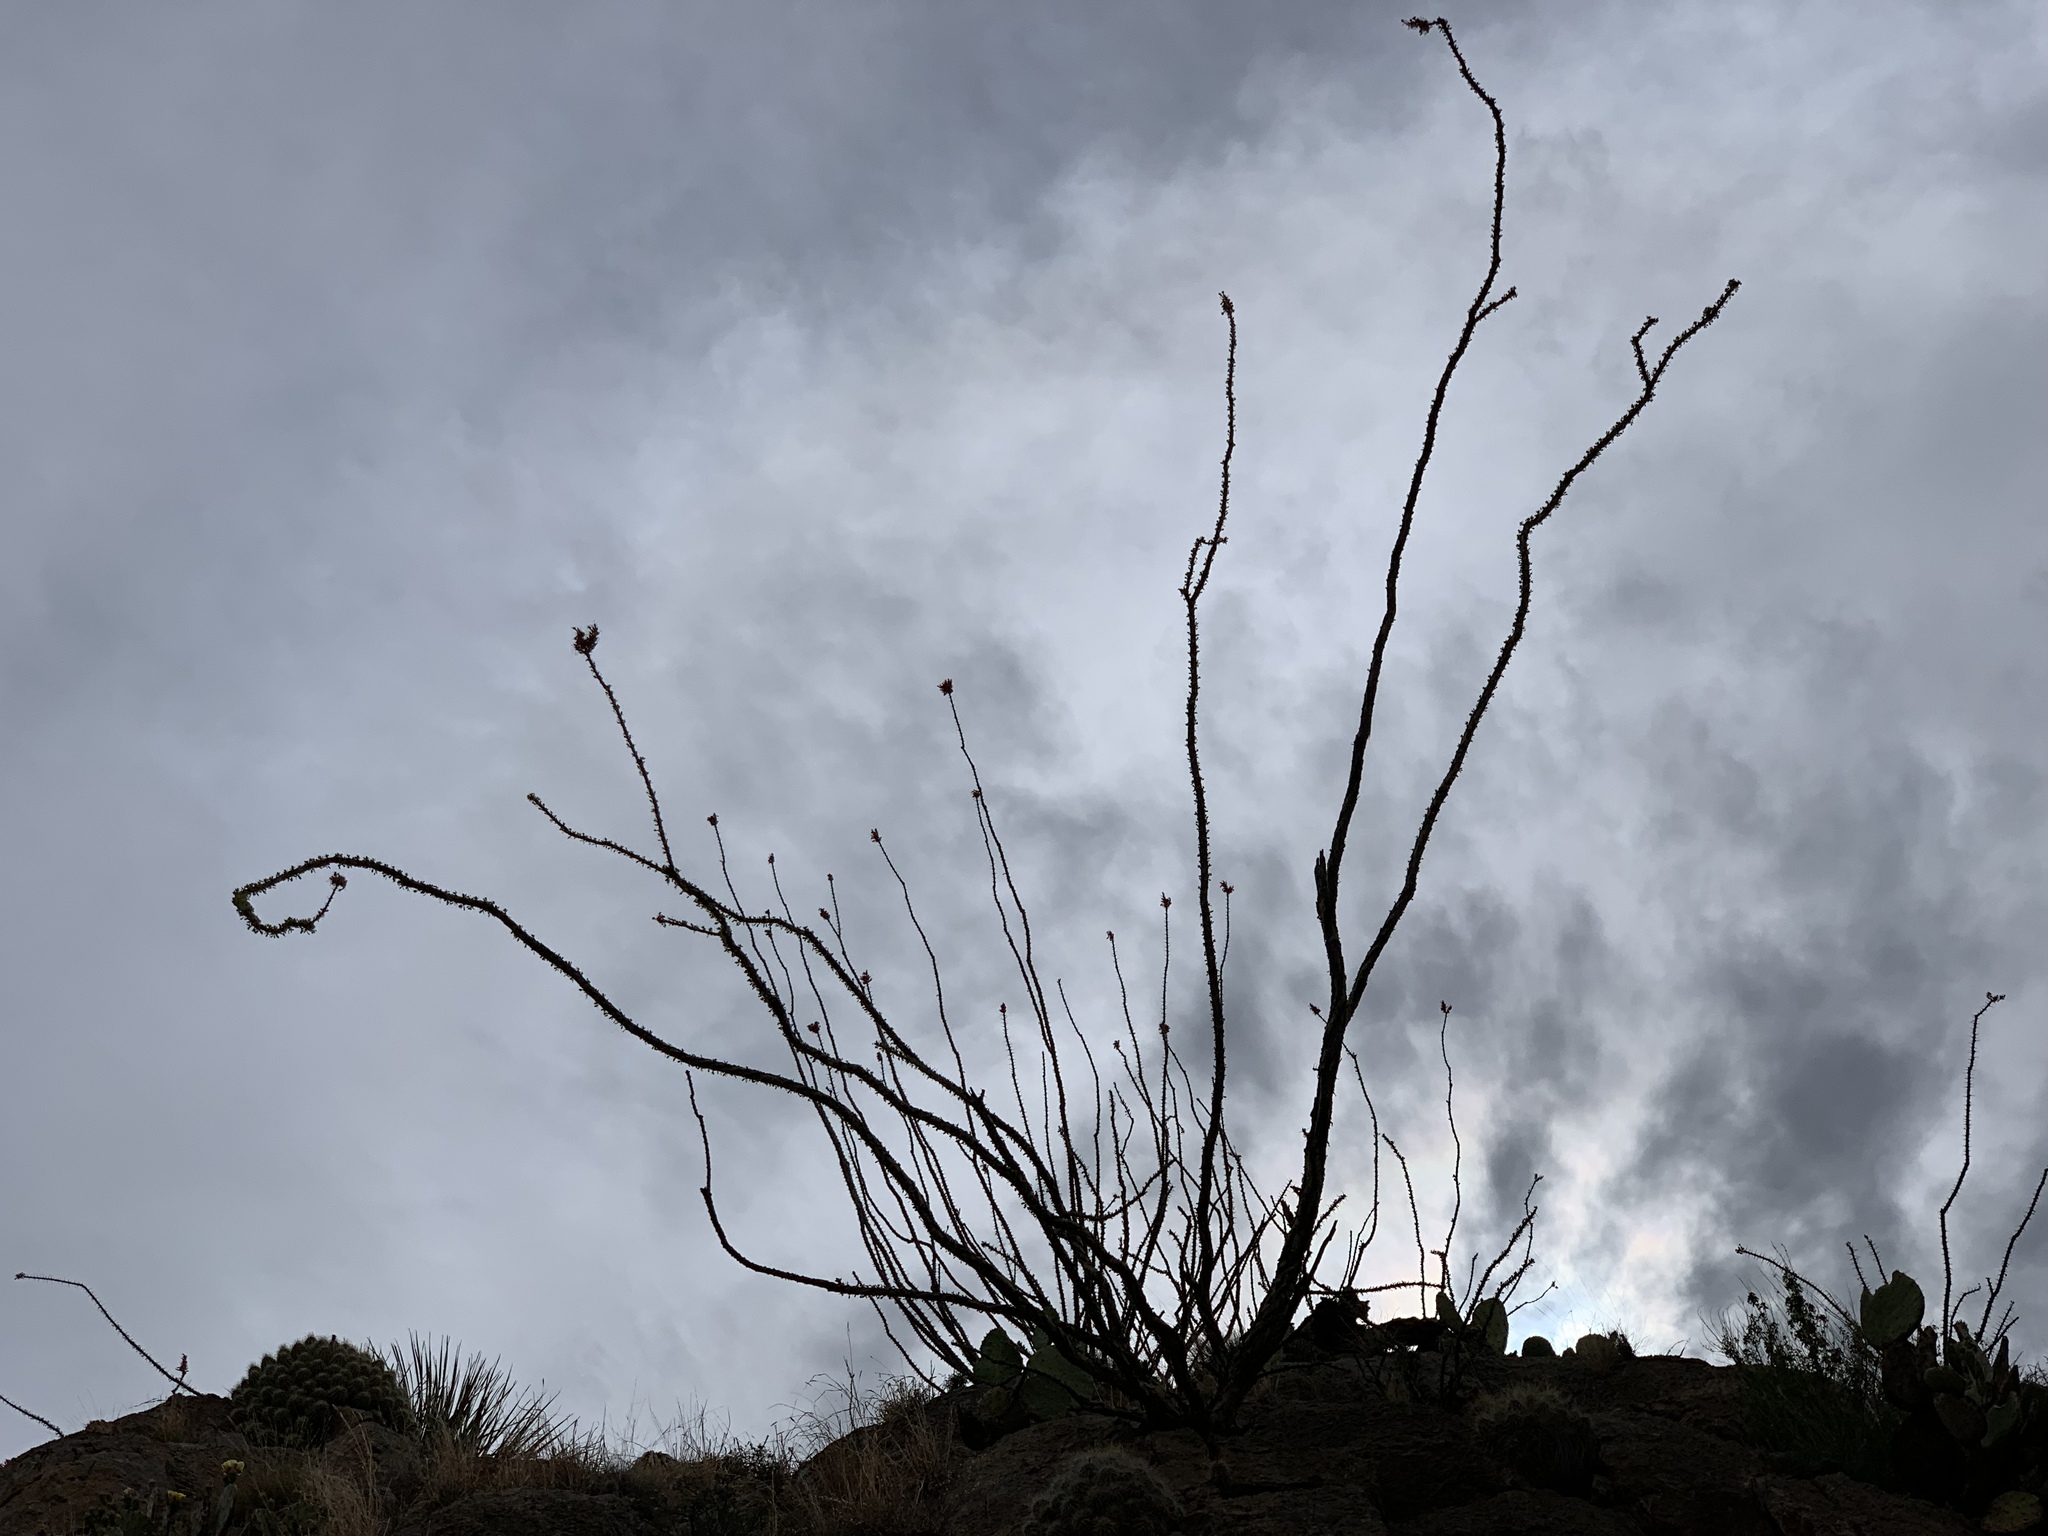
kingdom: Plantae
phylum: Tracheophyta
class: Magnoliopsida
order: Ericales
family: Fouquieriaceae
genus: Fouquieria
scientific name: Fouquieria splendens
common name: Vine-cactus
